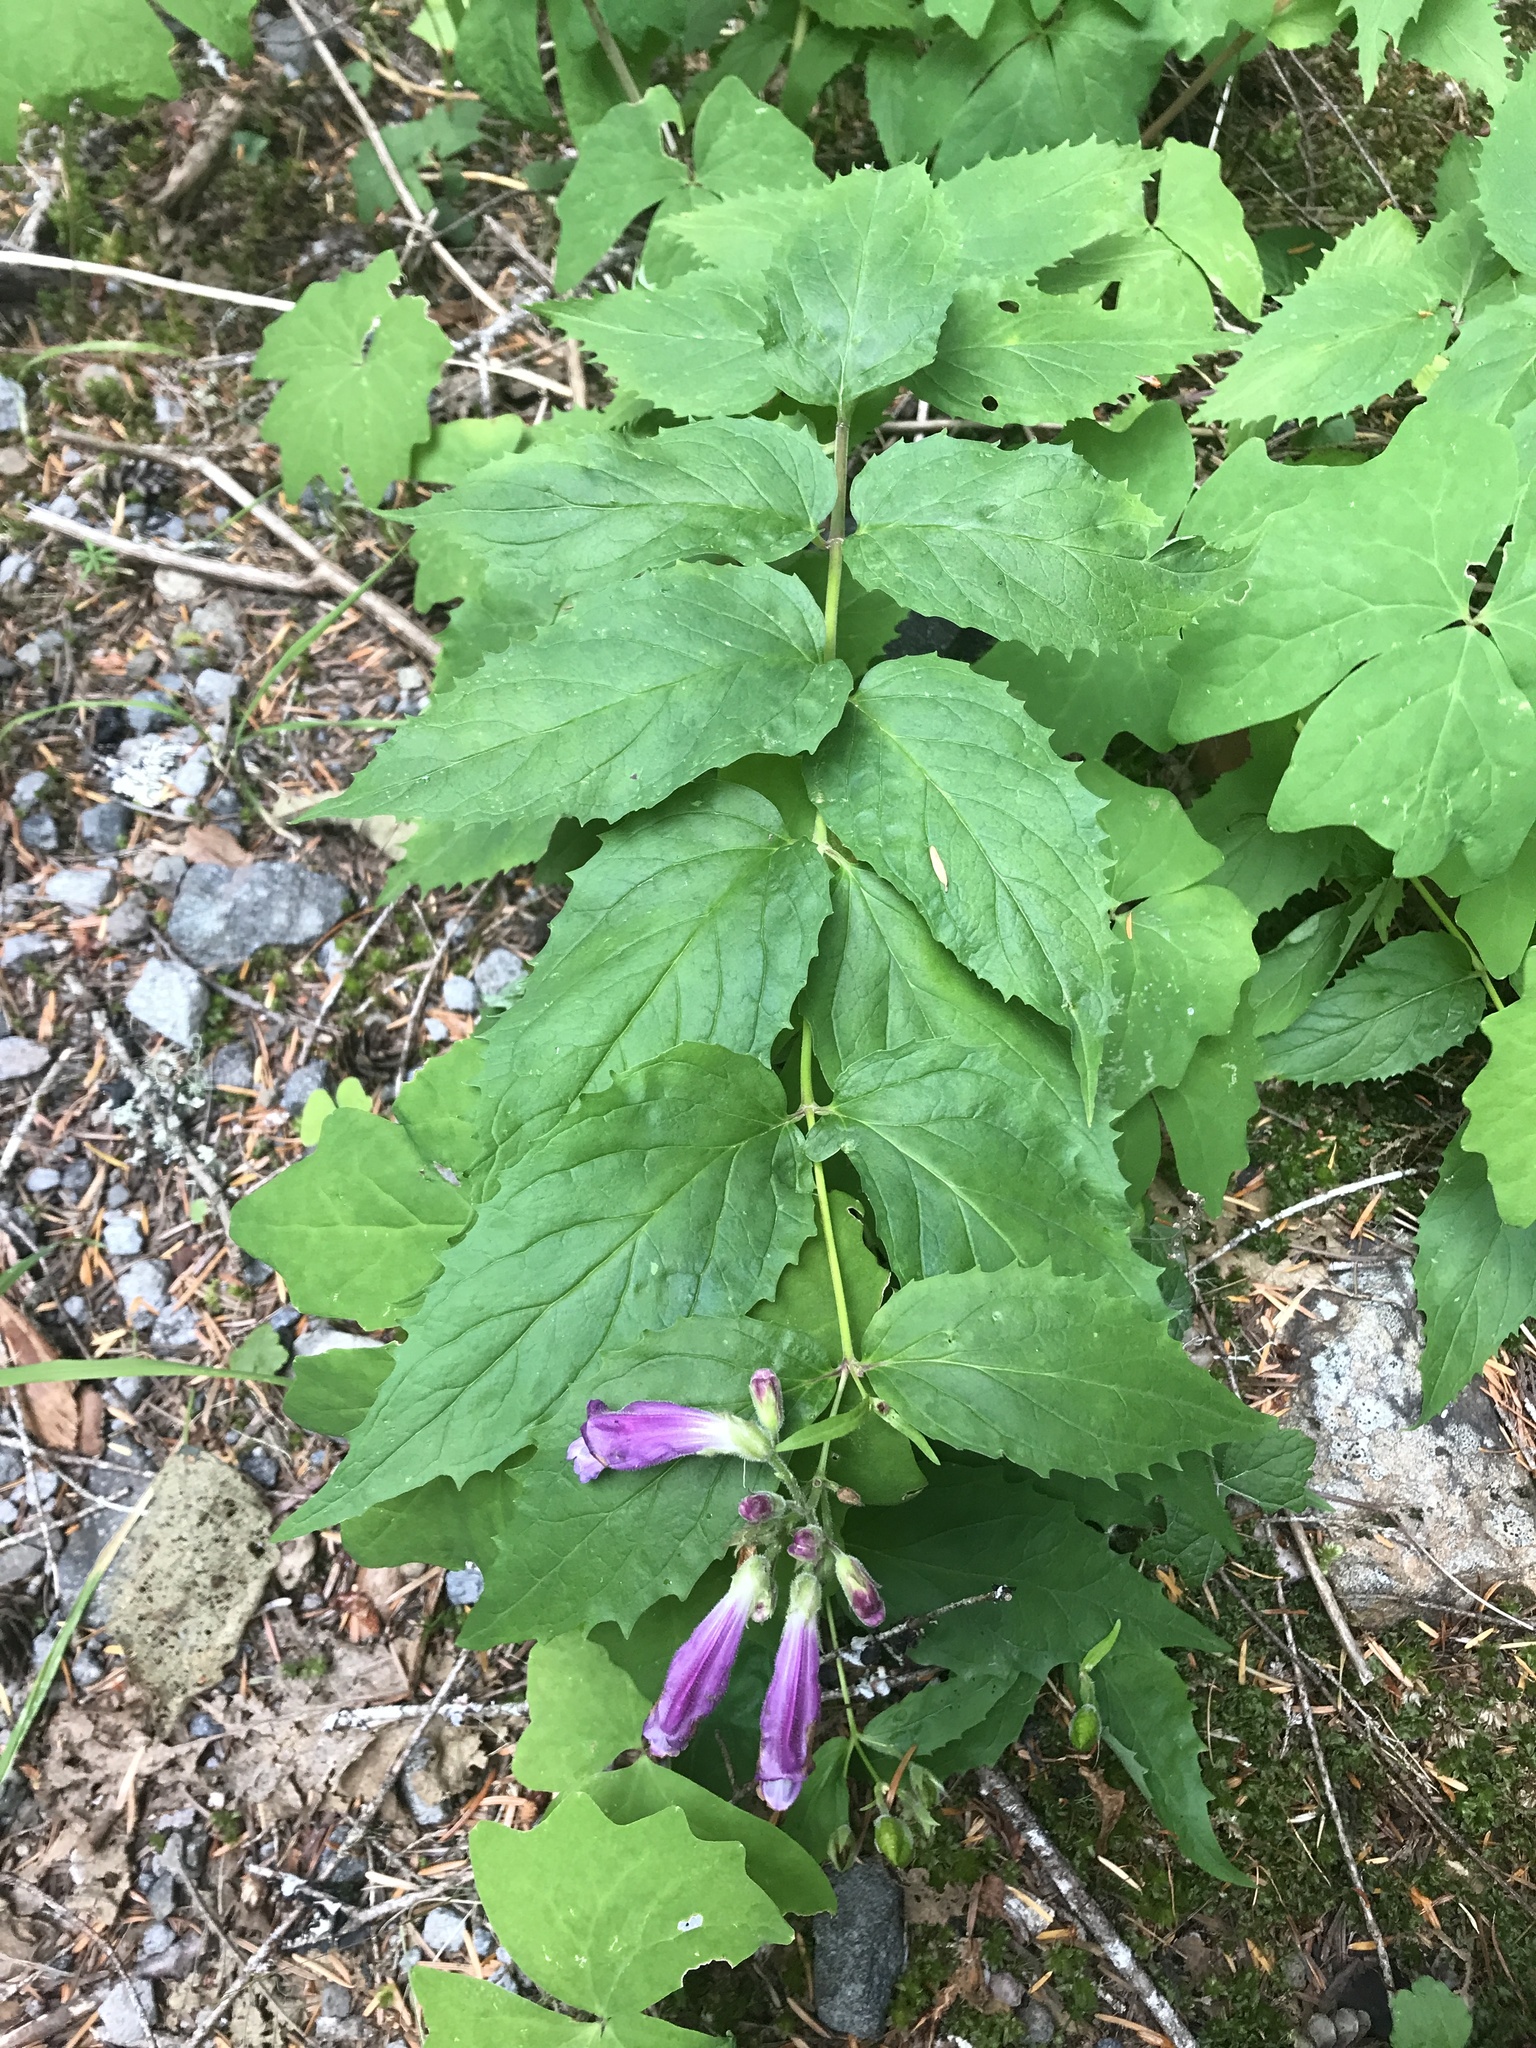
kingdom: Plantae
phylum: Tracheophyta
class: Magnoliopsida
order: Lamiales
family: Plantaginaceae
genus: Nothochelone
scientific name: Nothochelone nemorosa
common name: Woodland beardtongue
